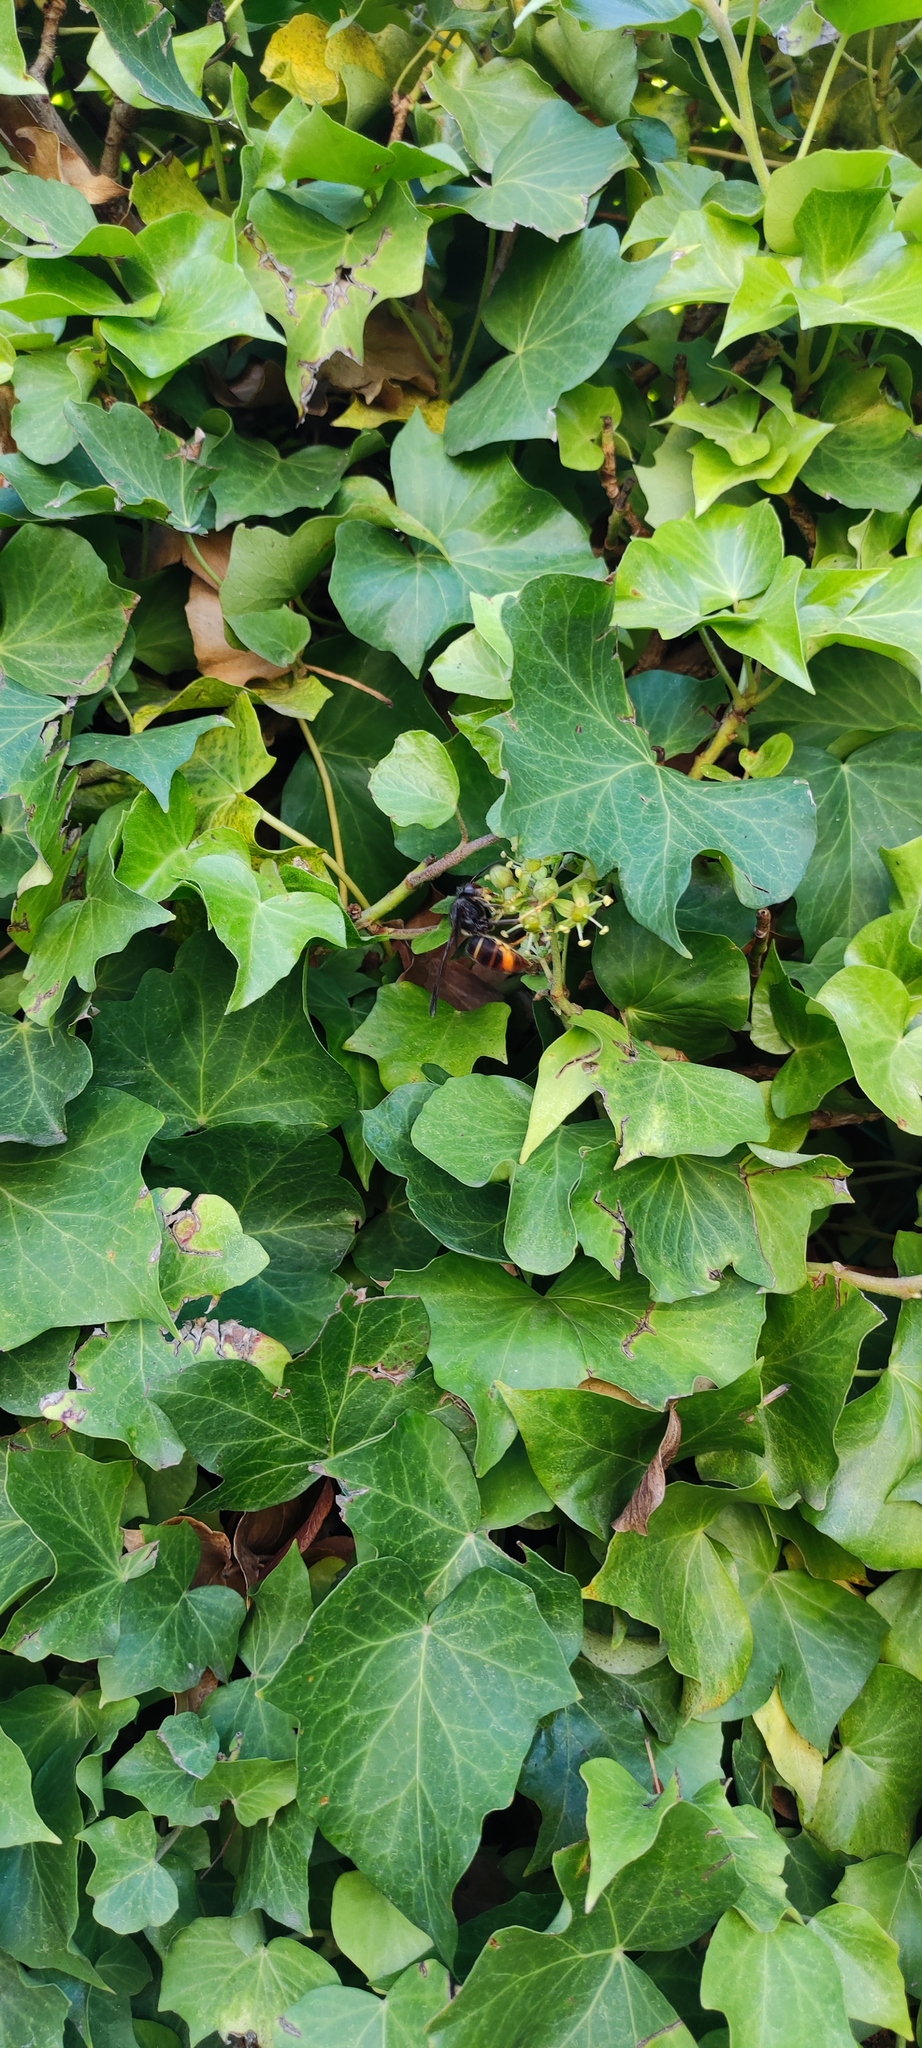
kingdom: Animalia
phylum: Arthropoda
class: Insecta
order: Hymenoptera
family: Vespidae
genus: Vespa
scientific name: Vespa velutina
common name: Asian hornet
